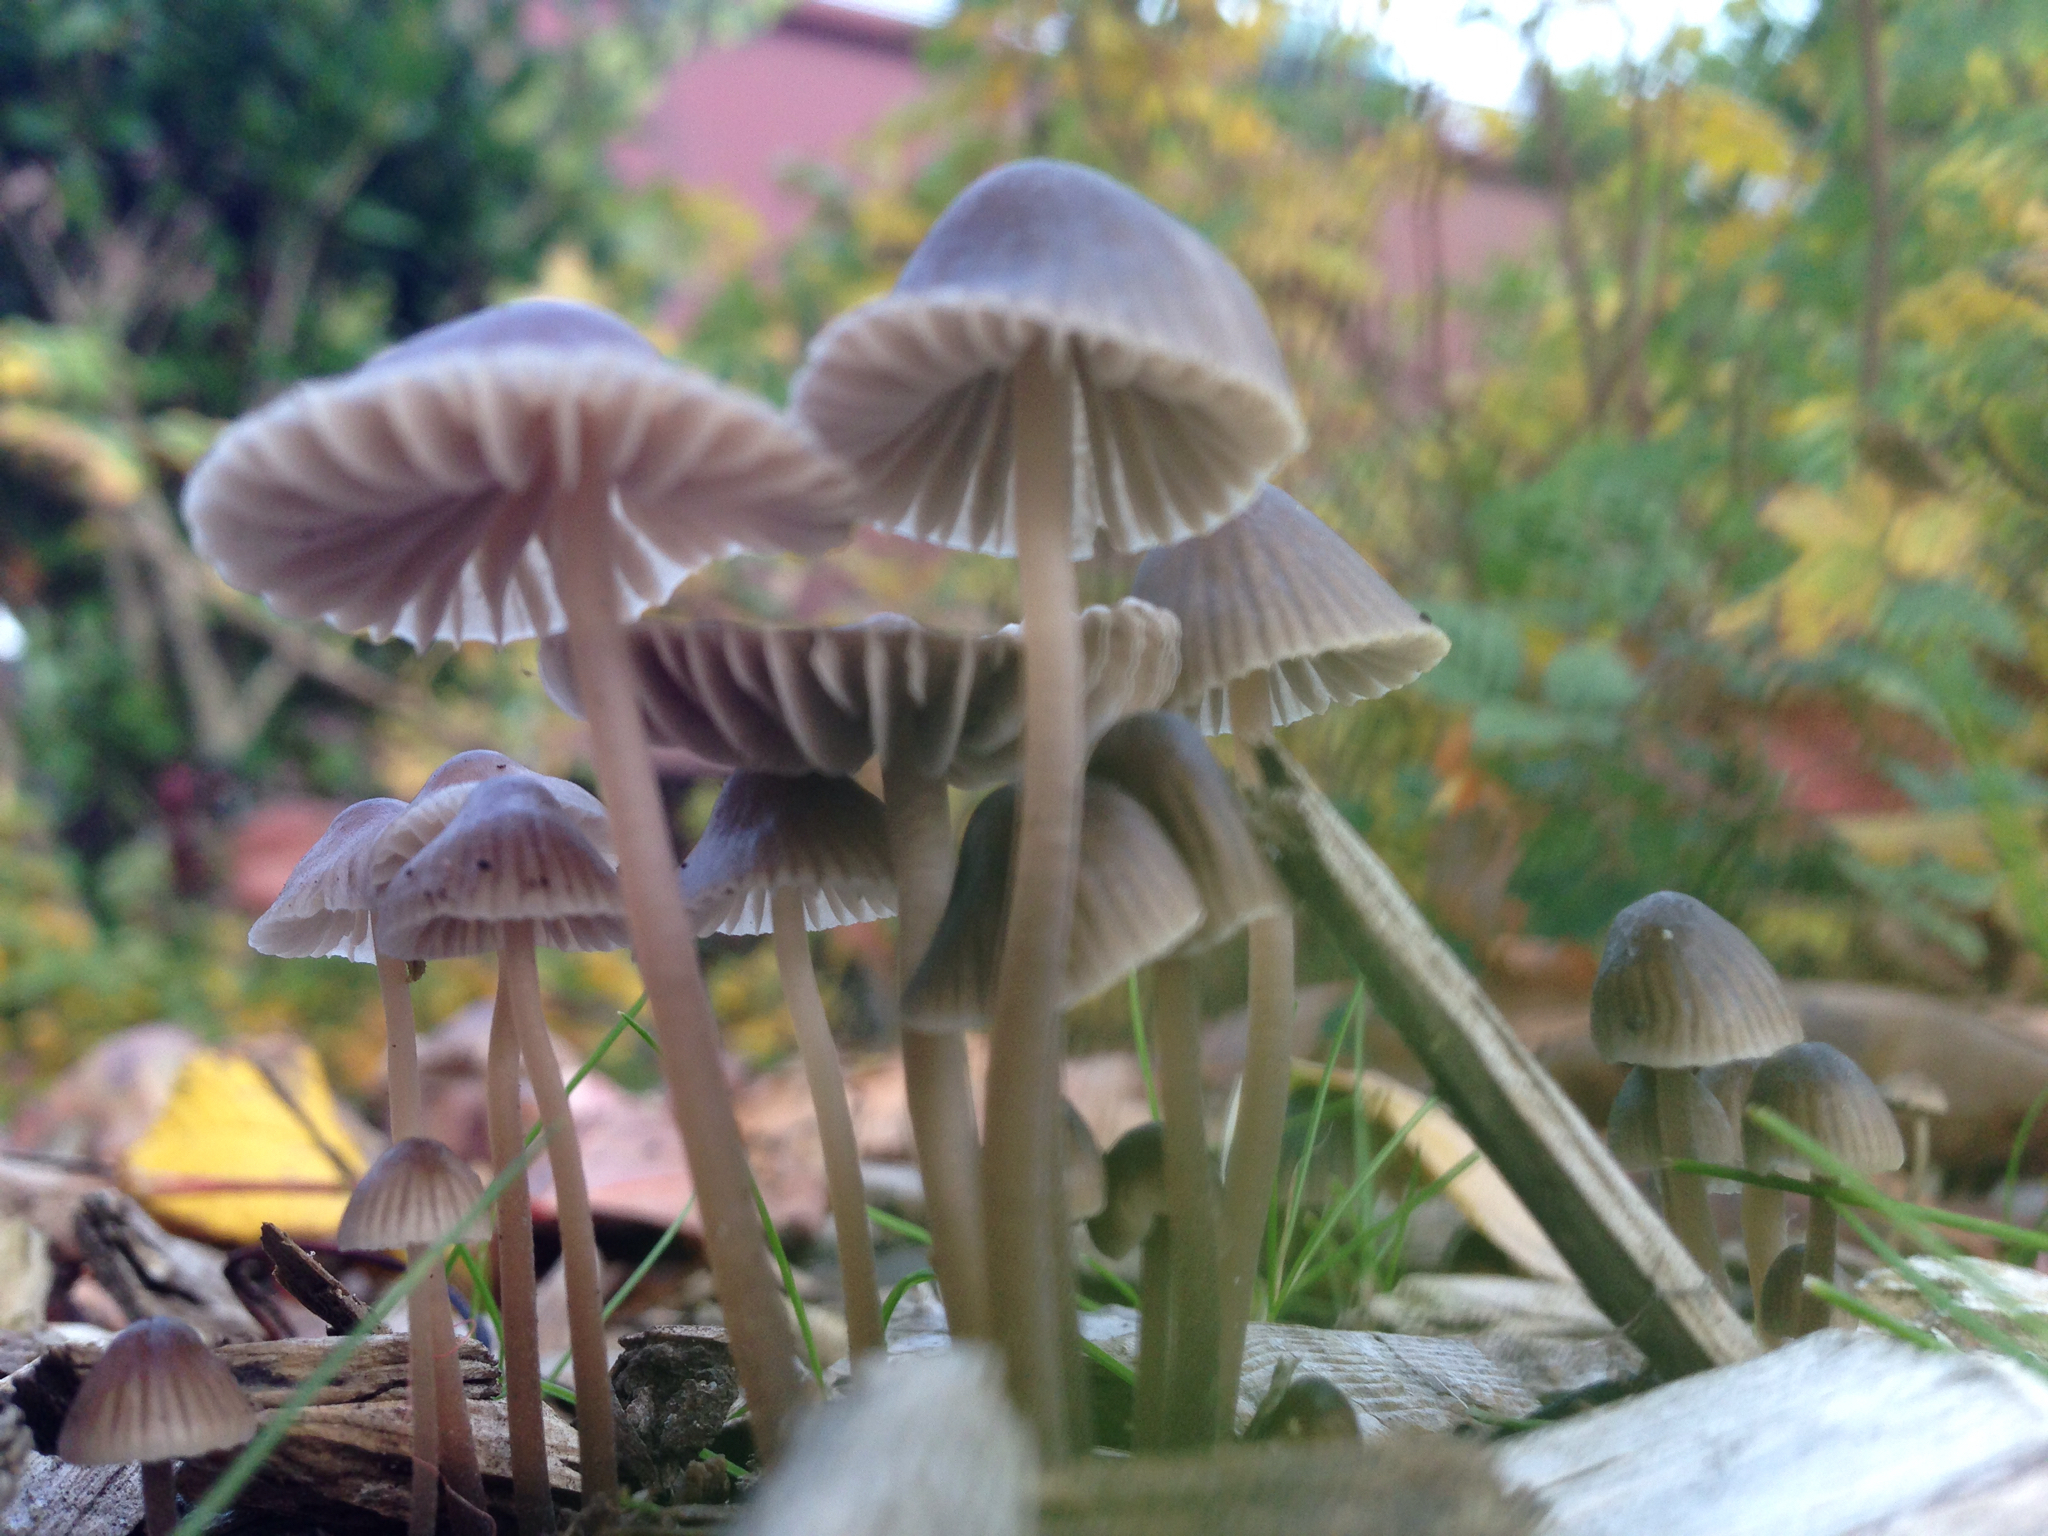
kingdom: Fungi
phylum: Basidiomycota
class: Agaricomycetes
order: Agaricales
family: Mycenaceae
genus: Mycena
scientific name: Mycena leptocephala
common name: Nitrous bonnet
